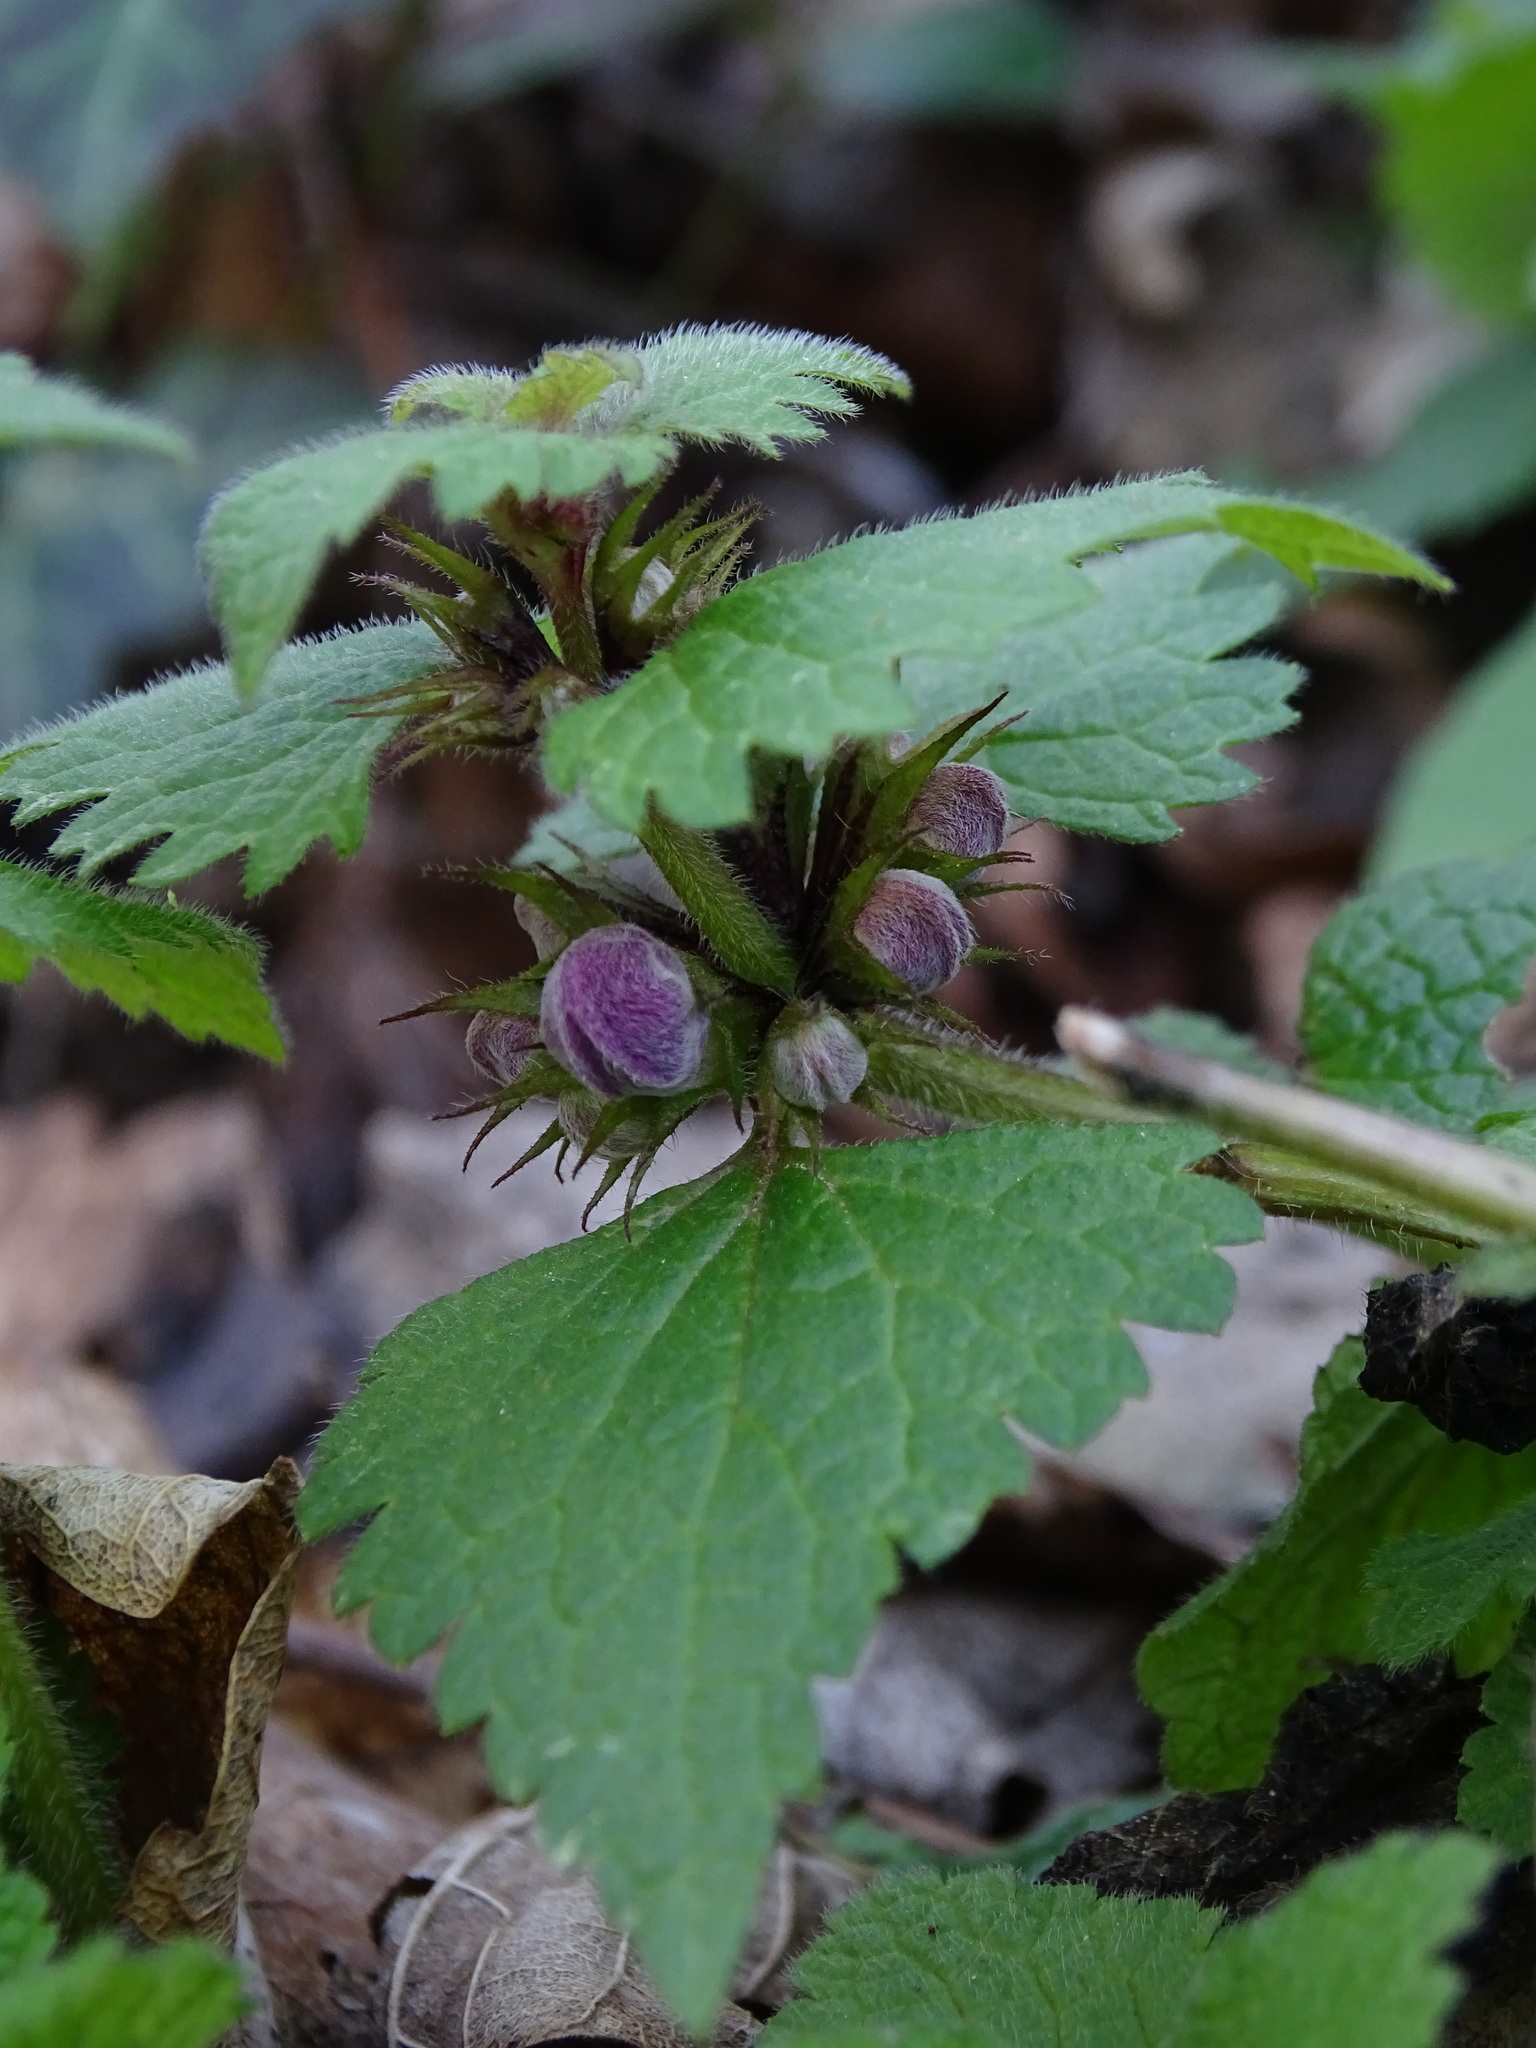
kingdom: Plantae
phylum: Tracheophyta
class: Magnoliopsida
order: Lamiales
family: Lamiaceae
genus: Lamium
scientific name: Lamium maculatum
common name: Spotted dead-nettle
